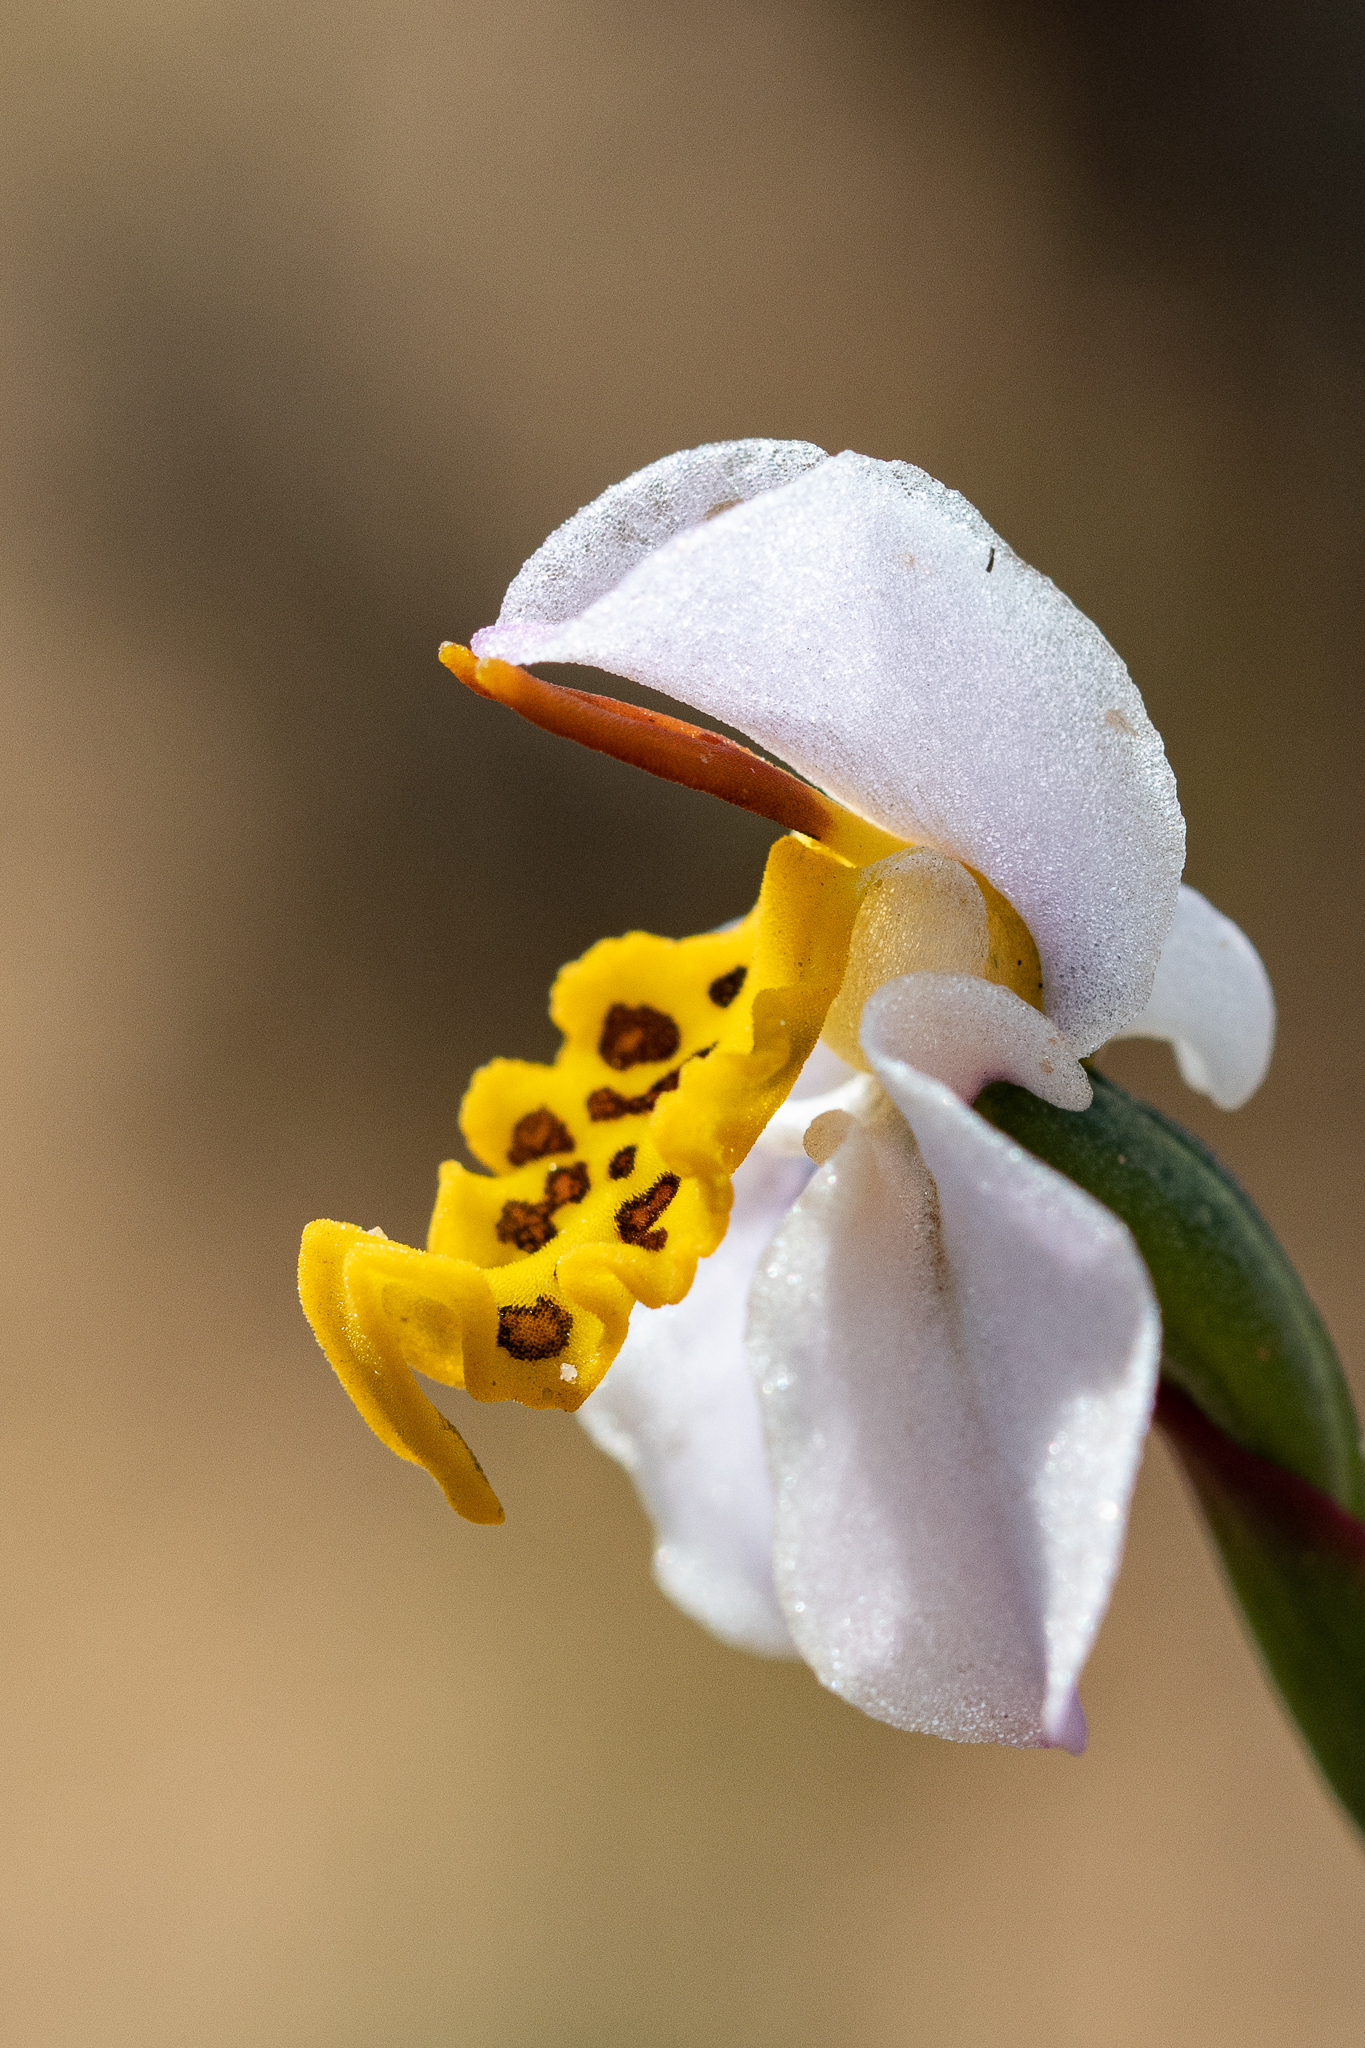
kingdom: Plantae
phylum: Tracheophyta
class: Liliopsida
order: Asparagales
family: Orchidaceae
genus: Disa
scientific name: Disa flexuosa
